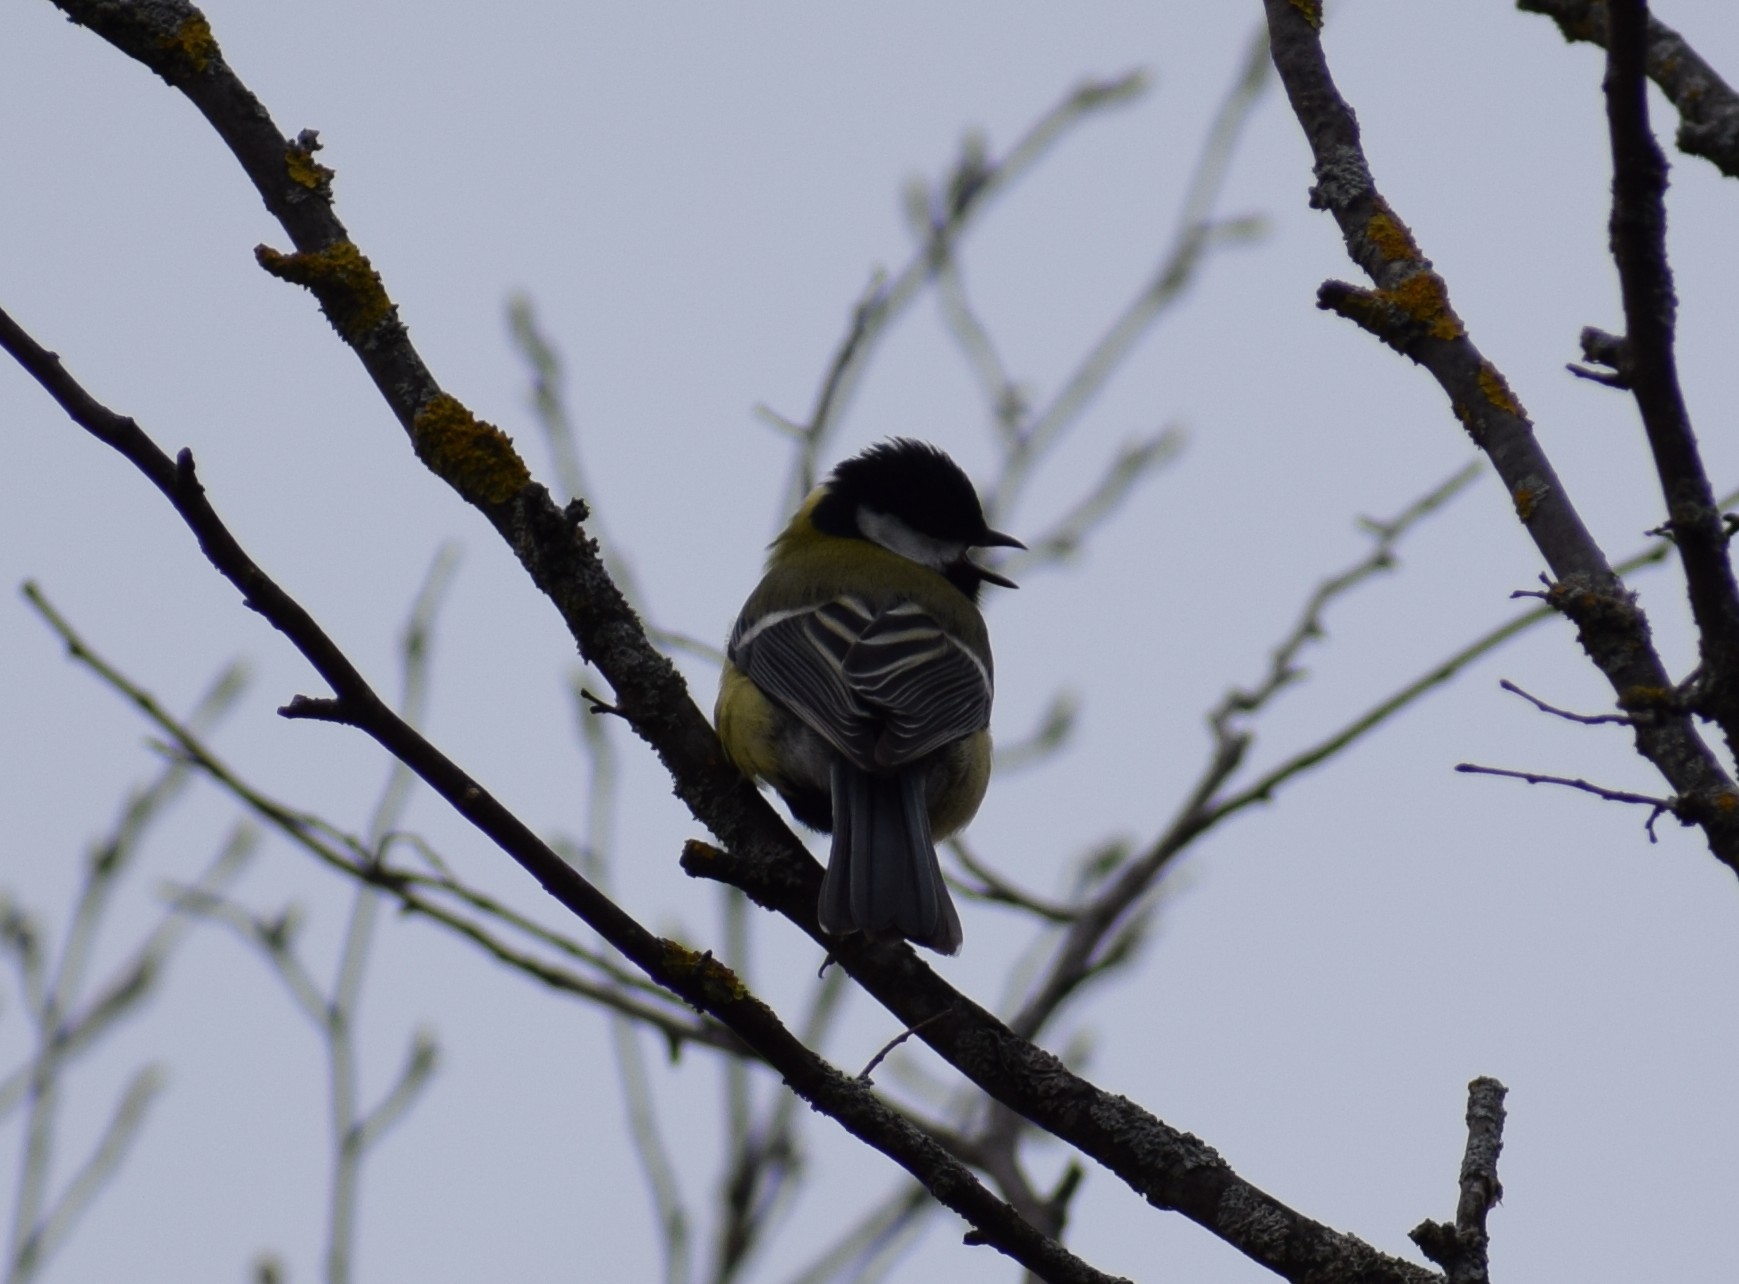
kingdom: Animalia
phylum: Chordata
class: Aves
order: Passeriformes
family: Paridae
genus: Parus
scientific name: Parus major
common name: Great tit
